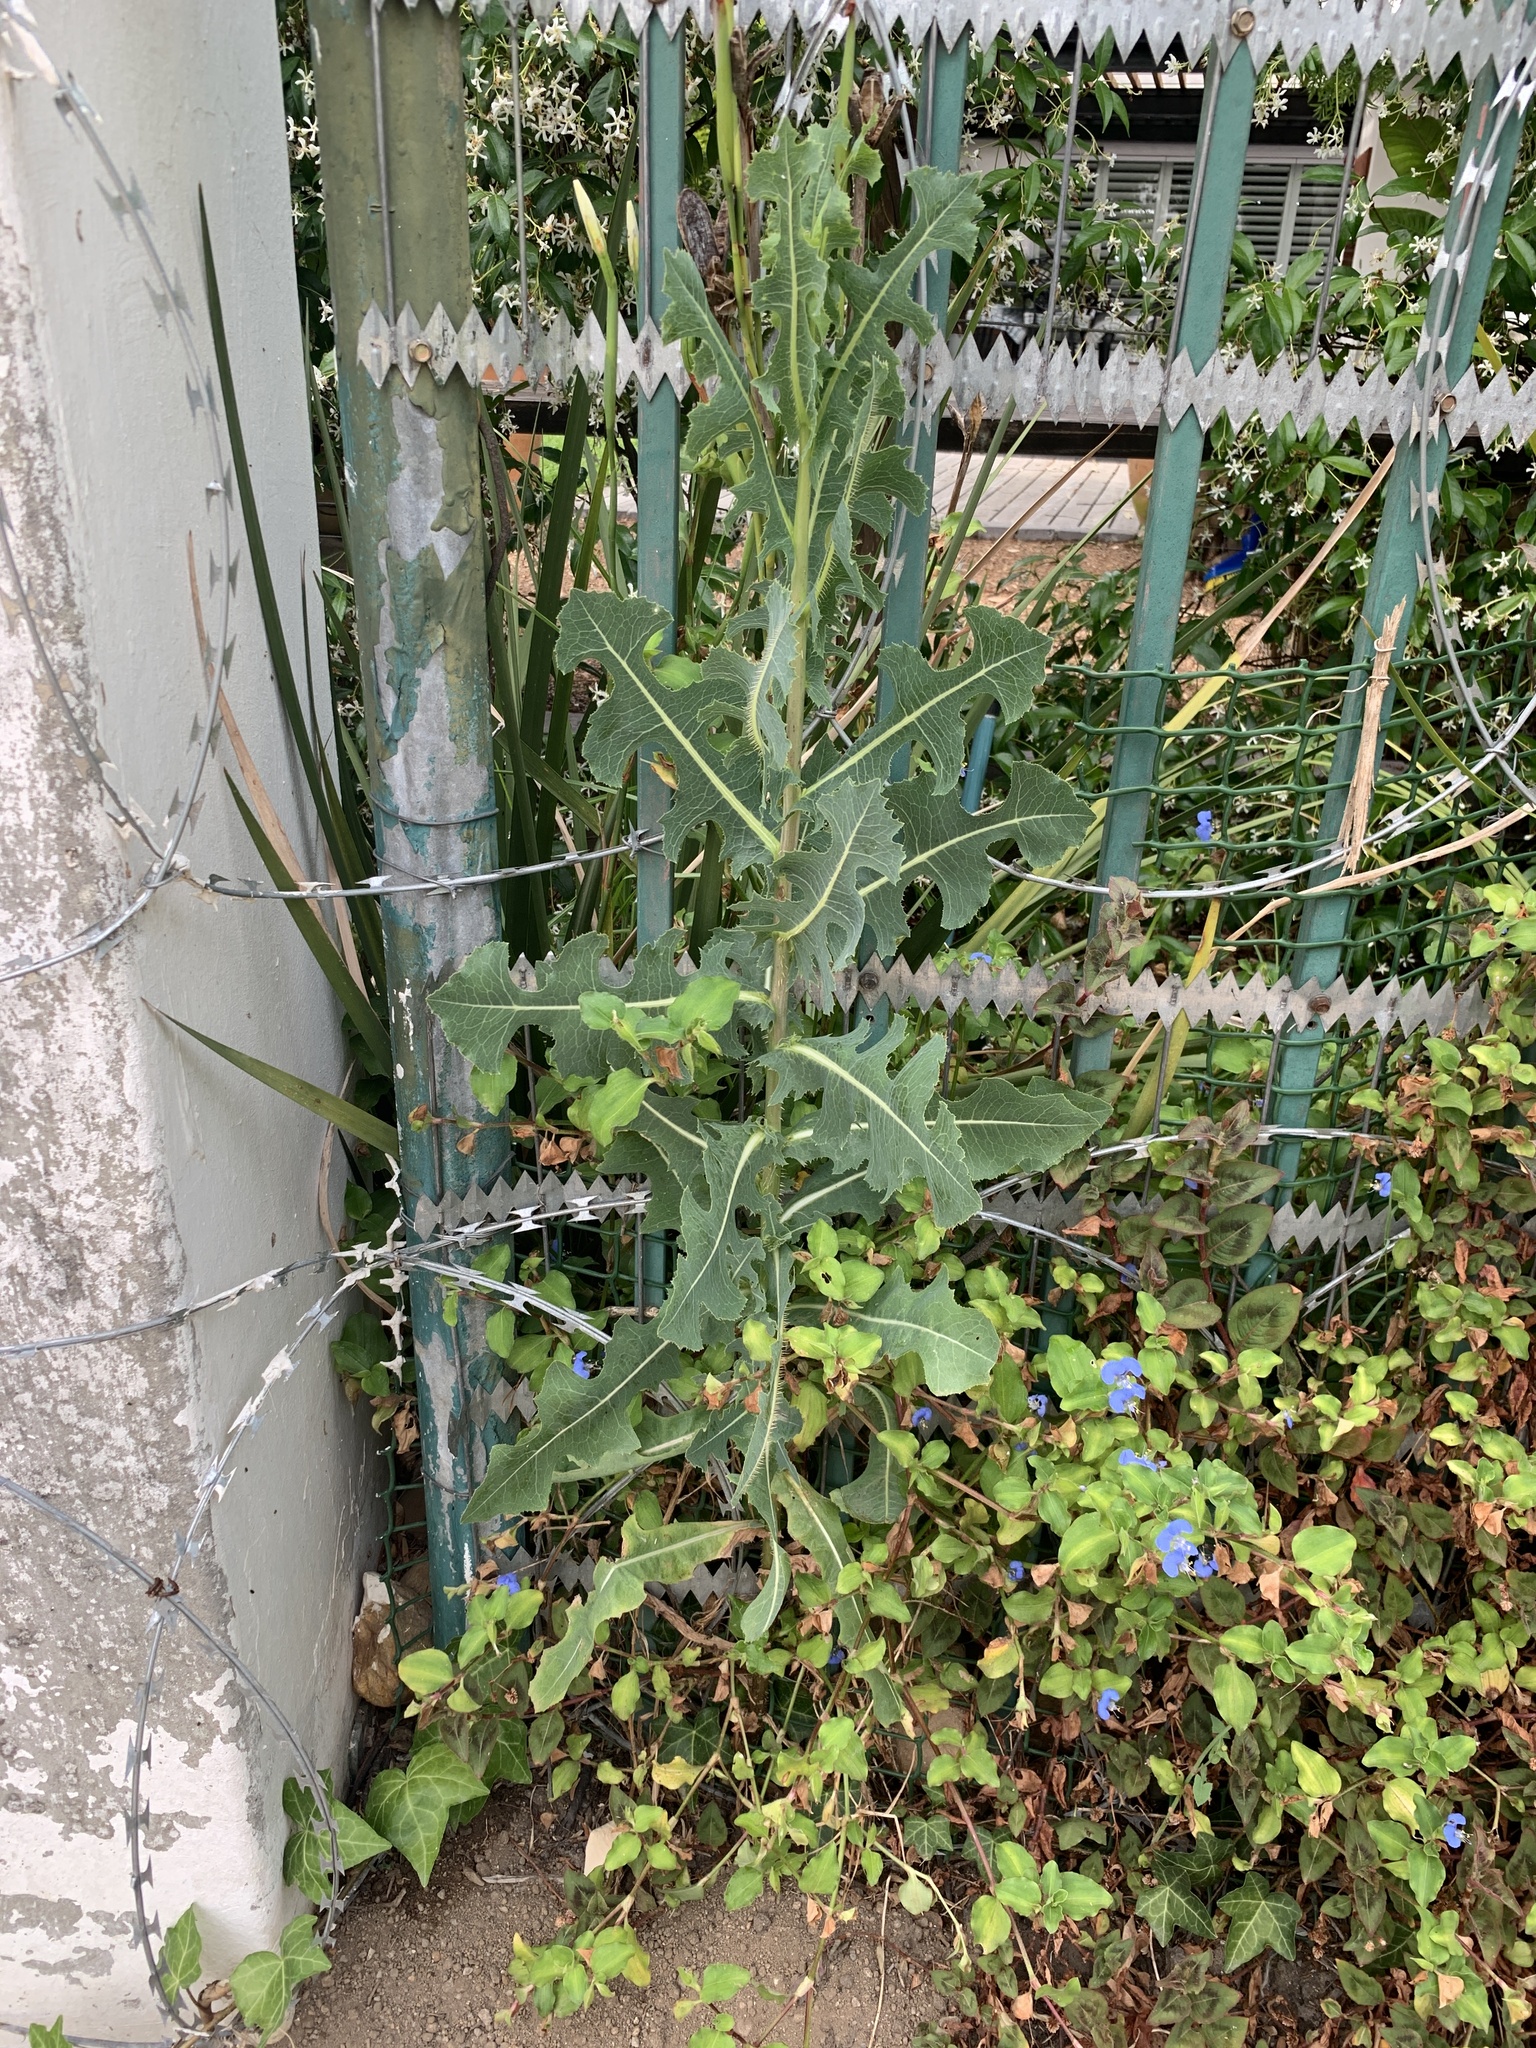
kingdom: Plantae
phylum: Tracheophyta
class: Magnoliopsida
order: Asterales
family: Asteraceae
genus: Lactuca
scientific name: Lactuca serriola
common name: Prickly lettuce
